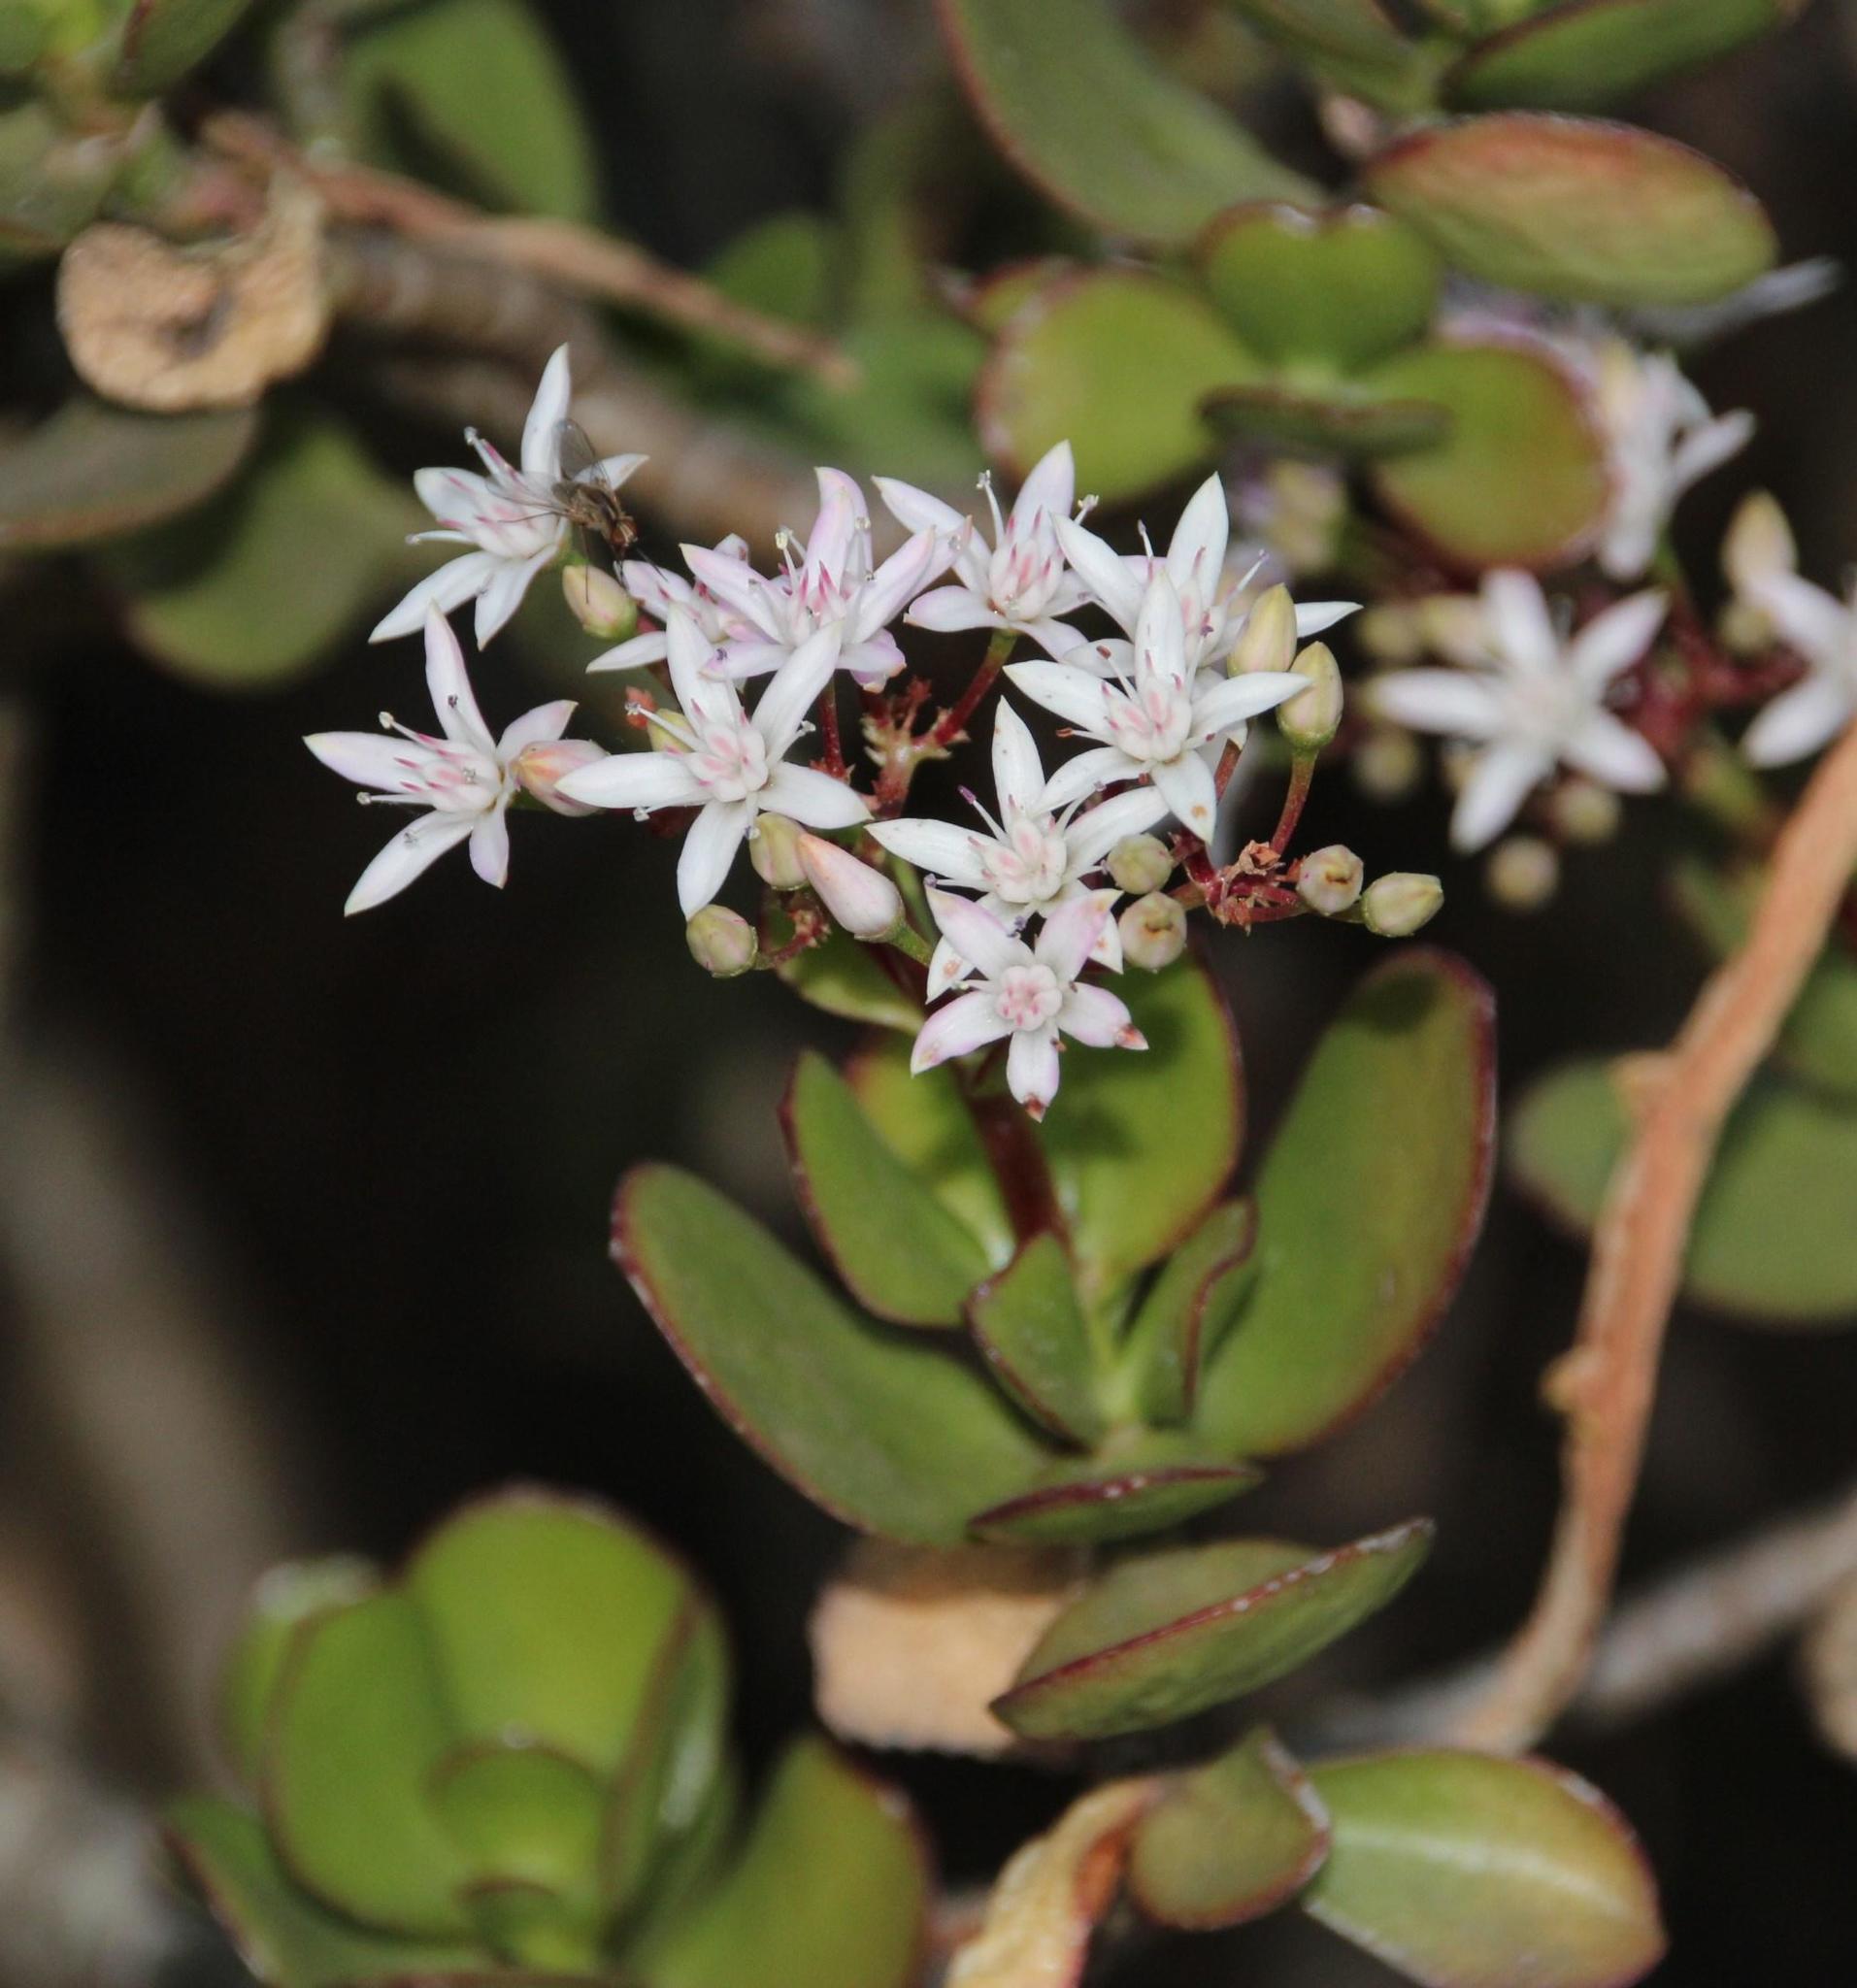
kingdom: Plantae
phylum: Tracheophyta
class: Magnoliopsida
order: Saxifragales
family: Crassulaceae
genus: Crassula
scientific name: Crassula ovata
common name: Jade plant
